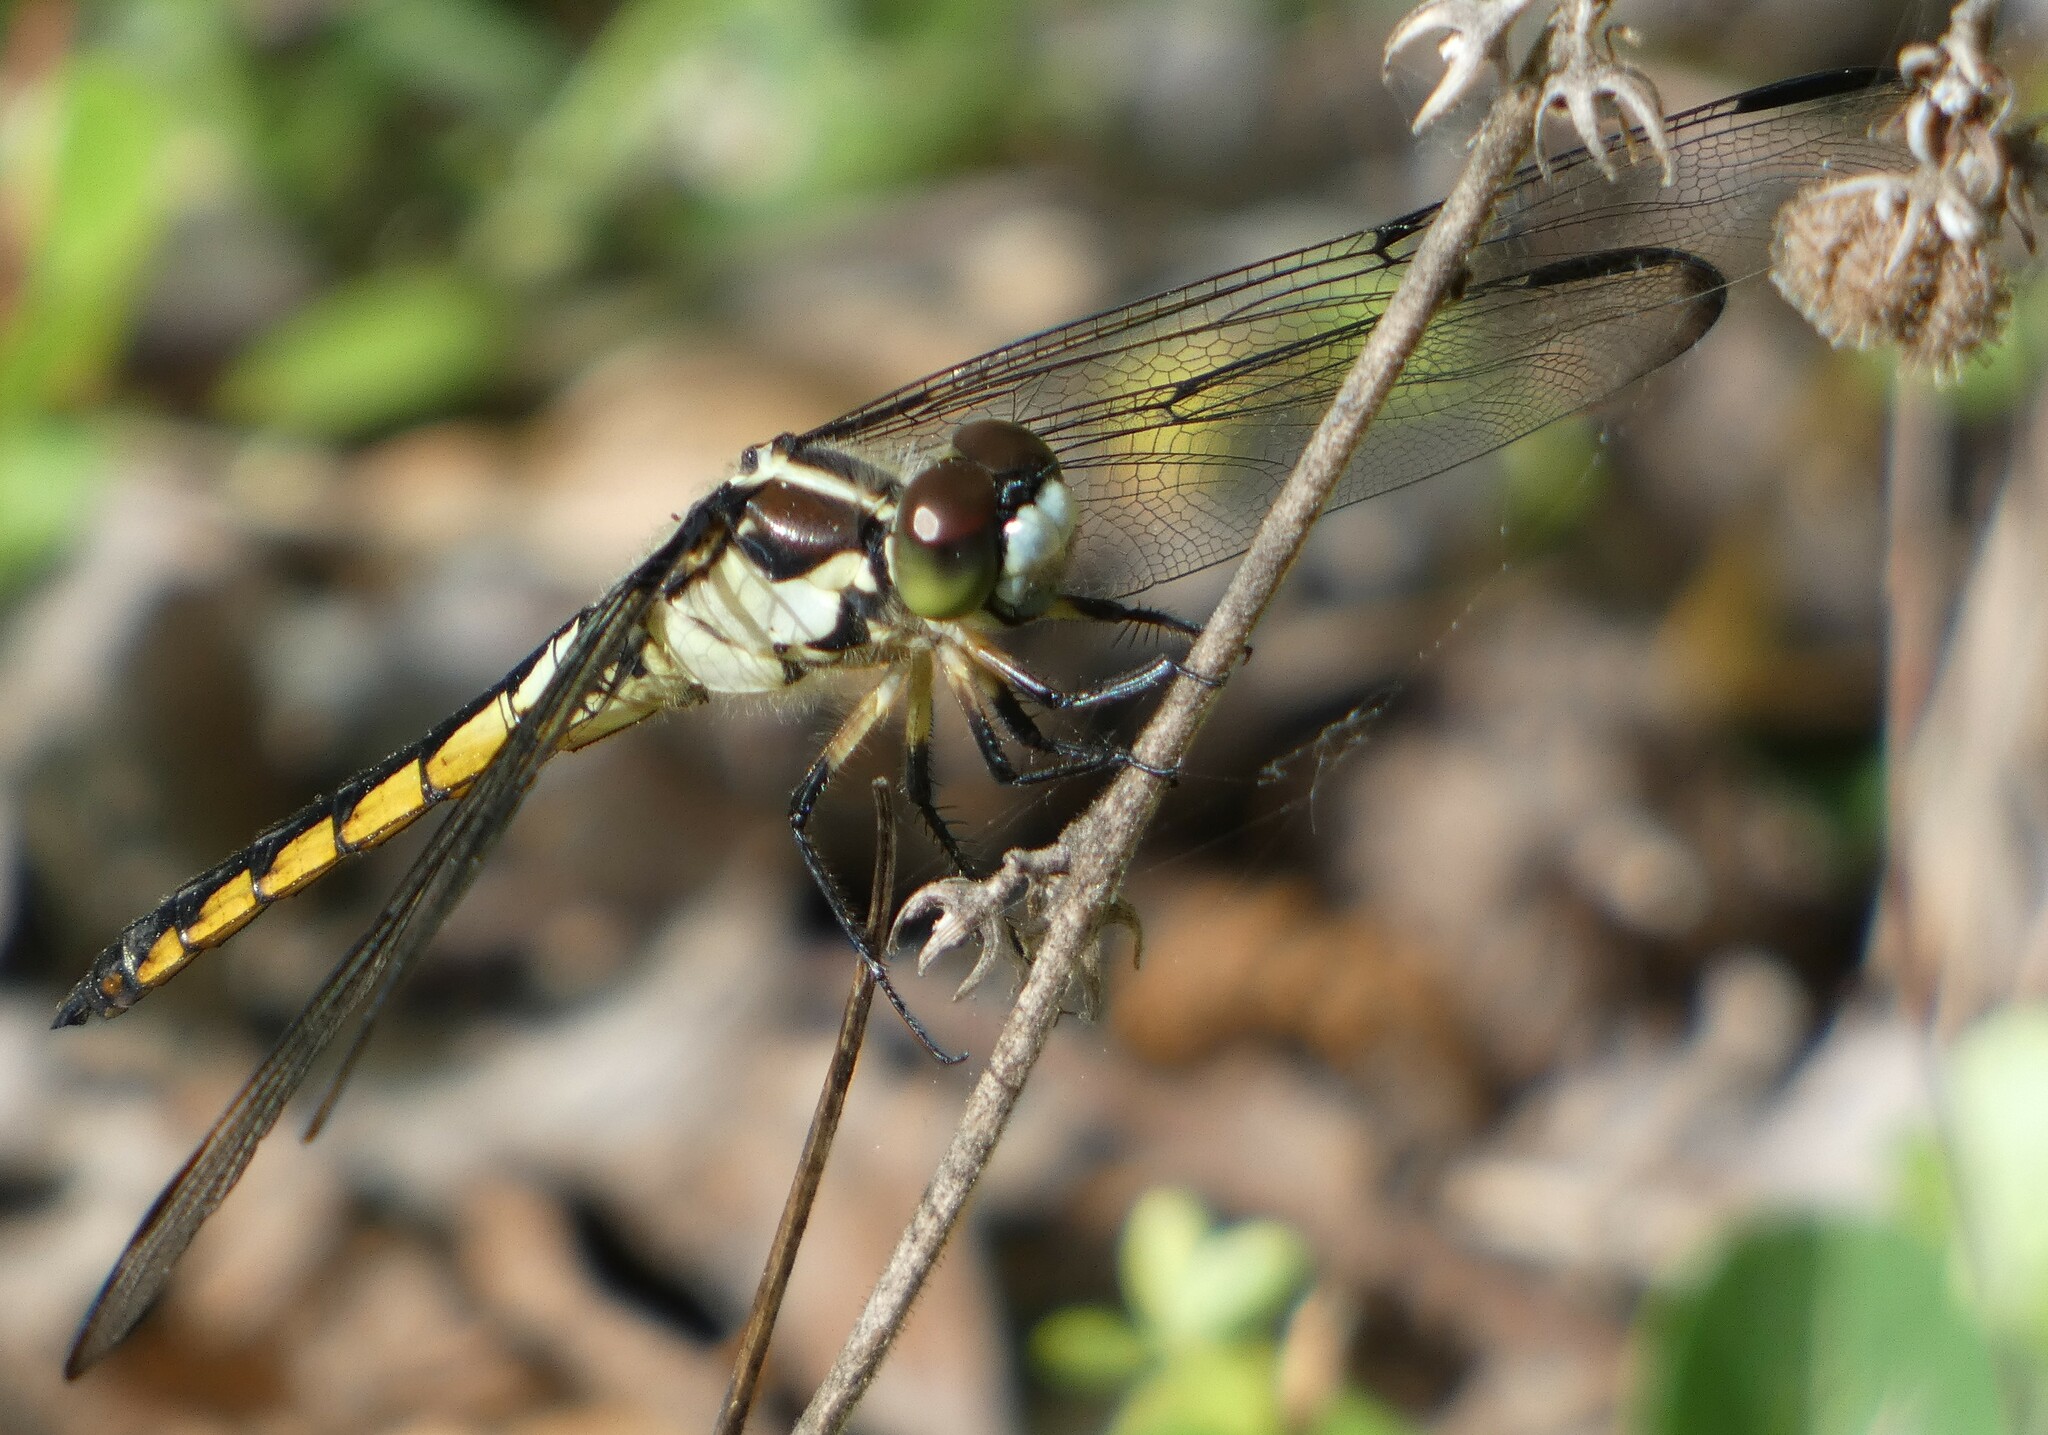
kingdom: Animalia
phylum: Arthropoda
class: Insecta
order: Odonata
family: Libellulidae
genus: Libellula
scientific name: Libellula vibrans
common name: Great blue skimmer
